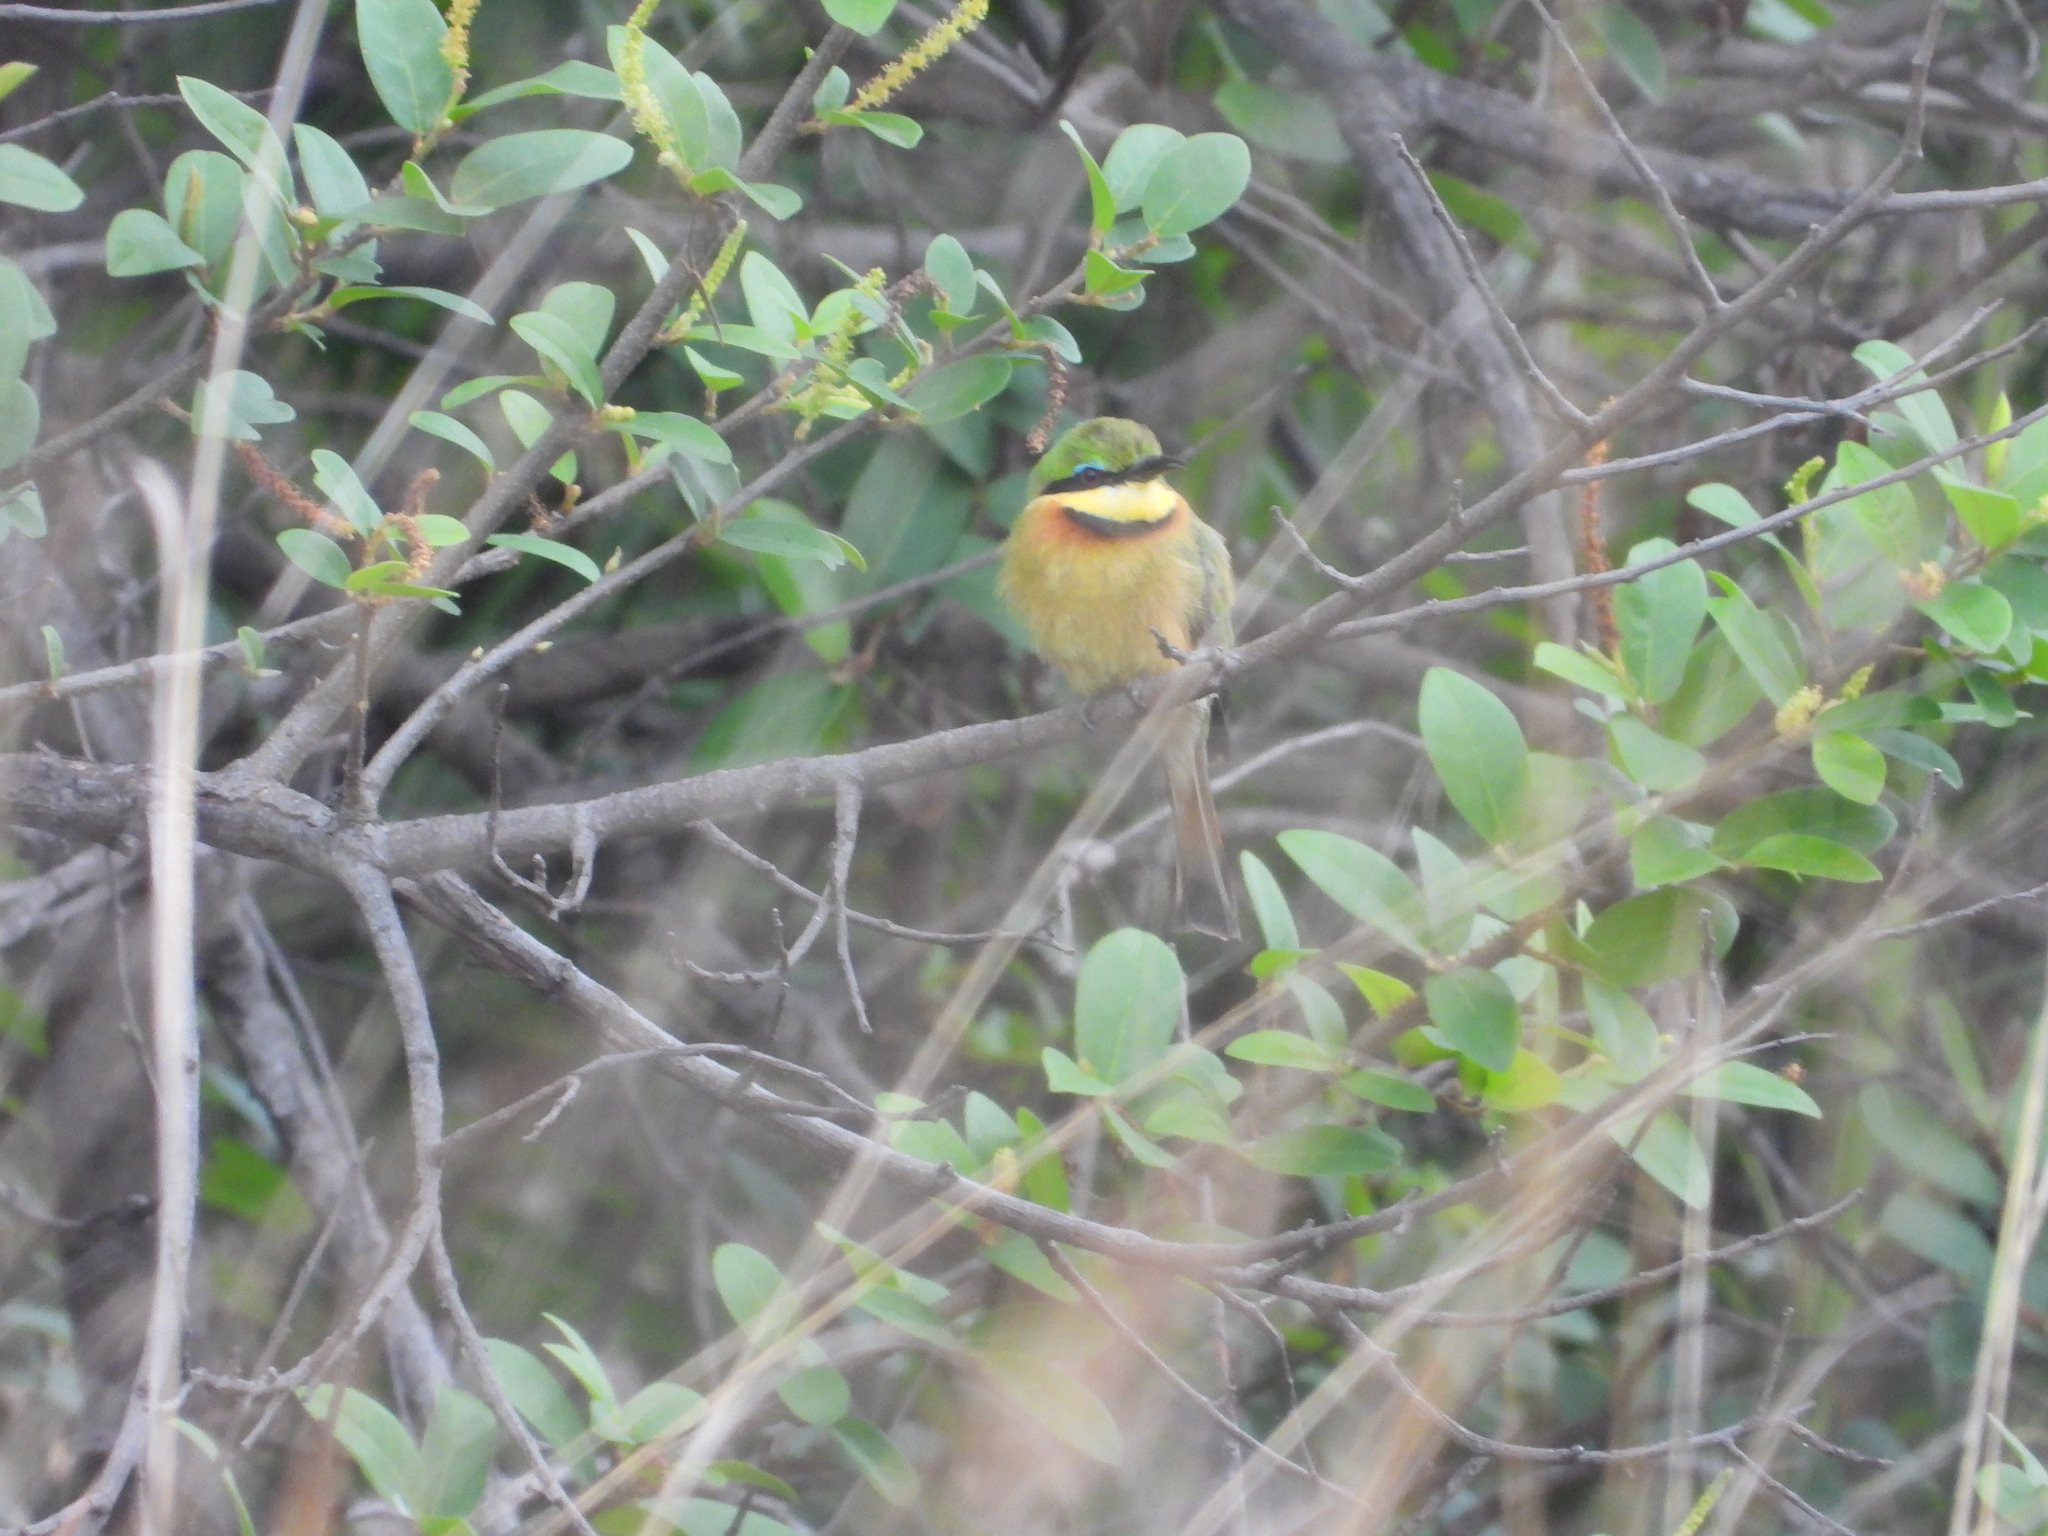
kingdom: Animalia
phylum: Chordata
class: Aves
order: Coraciiformes
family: Meropidae
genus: Merops
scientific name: Merops pusillus
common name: Little bee-eater
